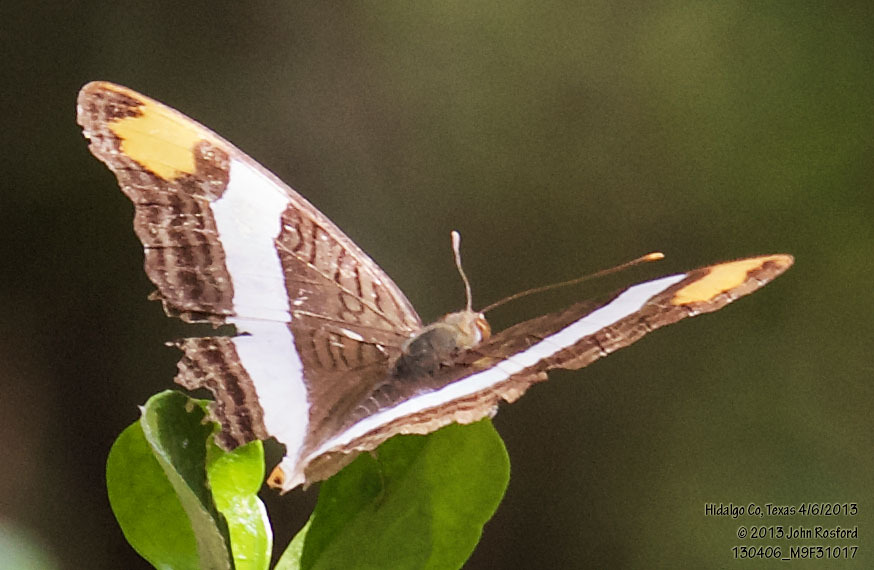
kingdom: Animalia
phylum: Arthropoda
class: Insecta
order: Lepidoptera
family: Nymphalidae
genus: Limenitis
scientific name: Limenitis fessonia
